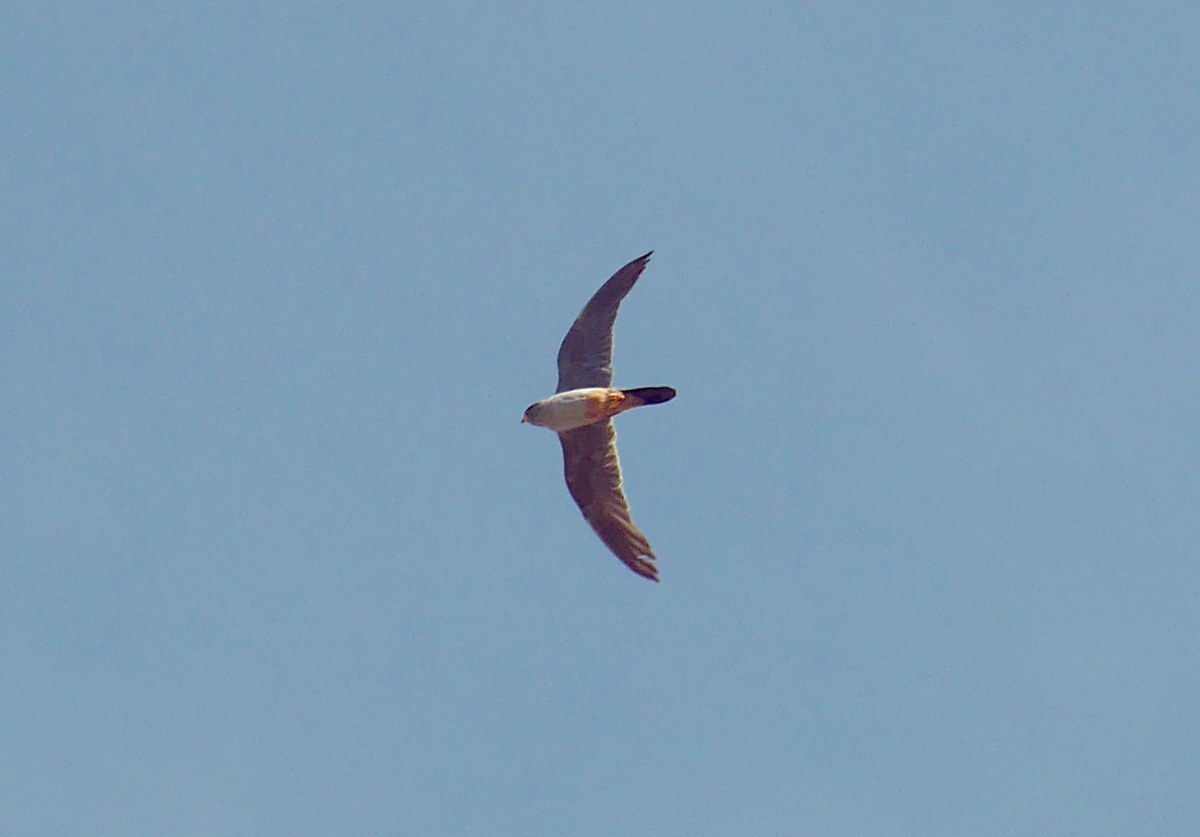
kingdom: Animalia
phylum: Chordata
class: Aves
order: Falconiformes
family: Falconidae
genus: Falco
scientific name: Falco vespertinus
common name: Red-footed falcon
